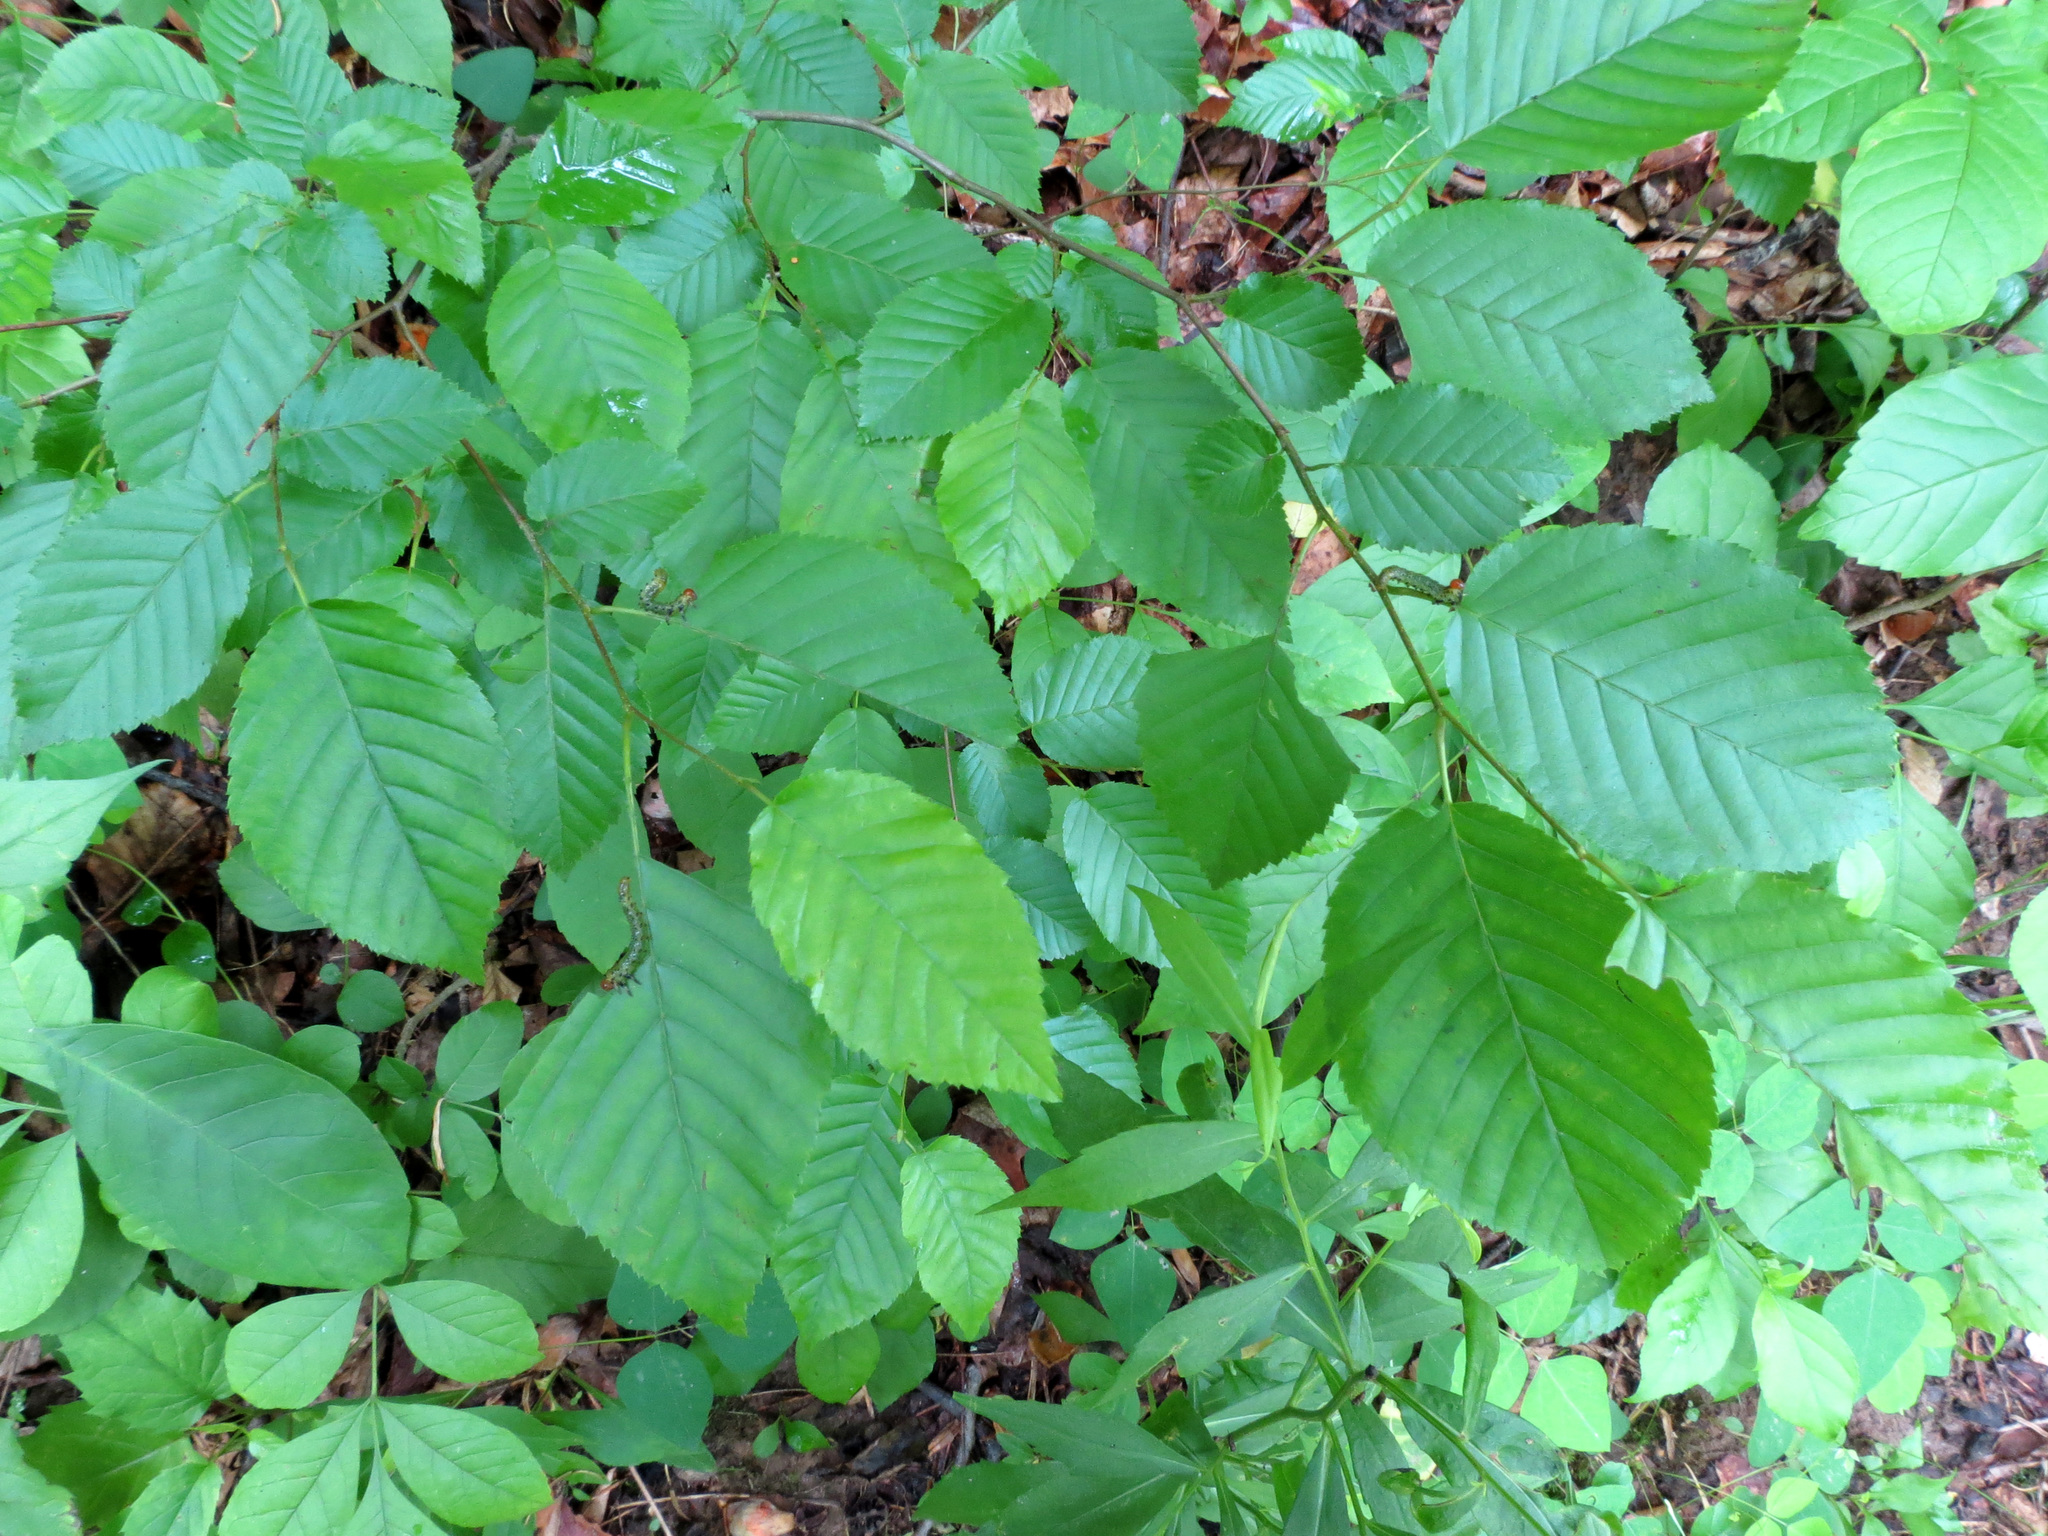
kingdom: Plantae
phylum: Tracheophyta
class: Magnoliopsida
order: Fagales
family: Fagaceae
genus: Fagus
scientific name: Fagus grandifolia
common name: American beech
